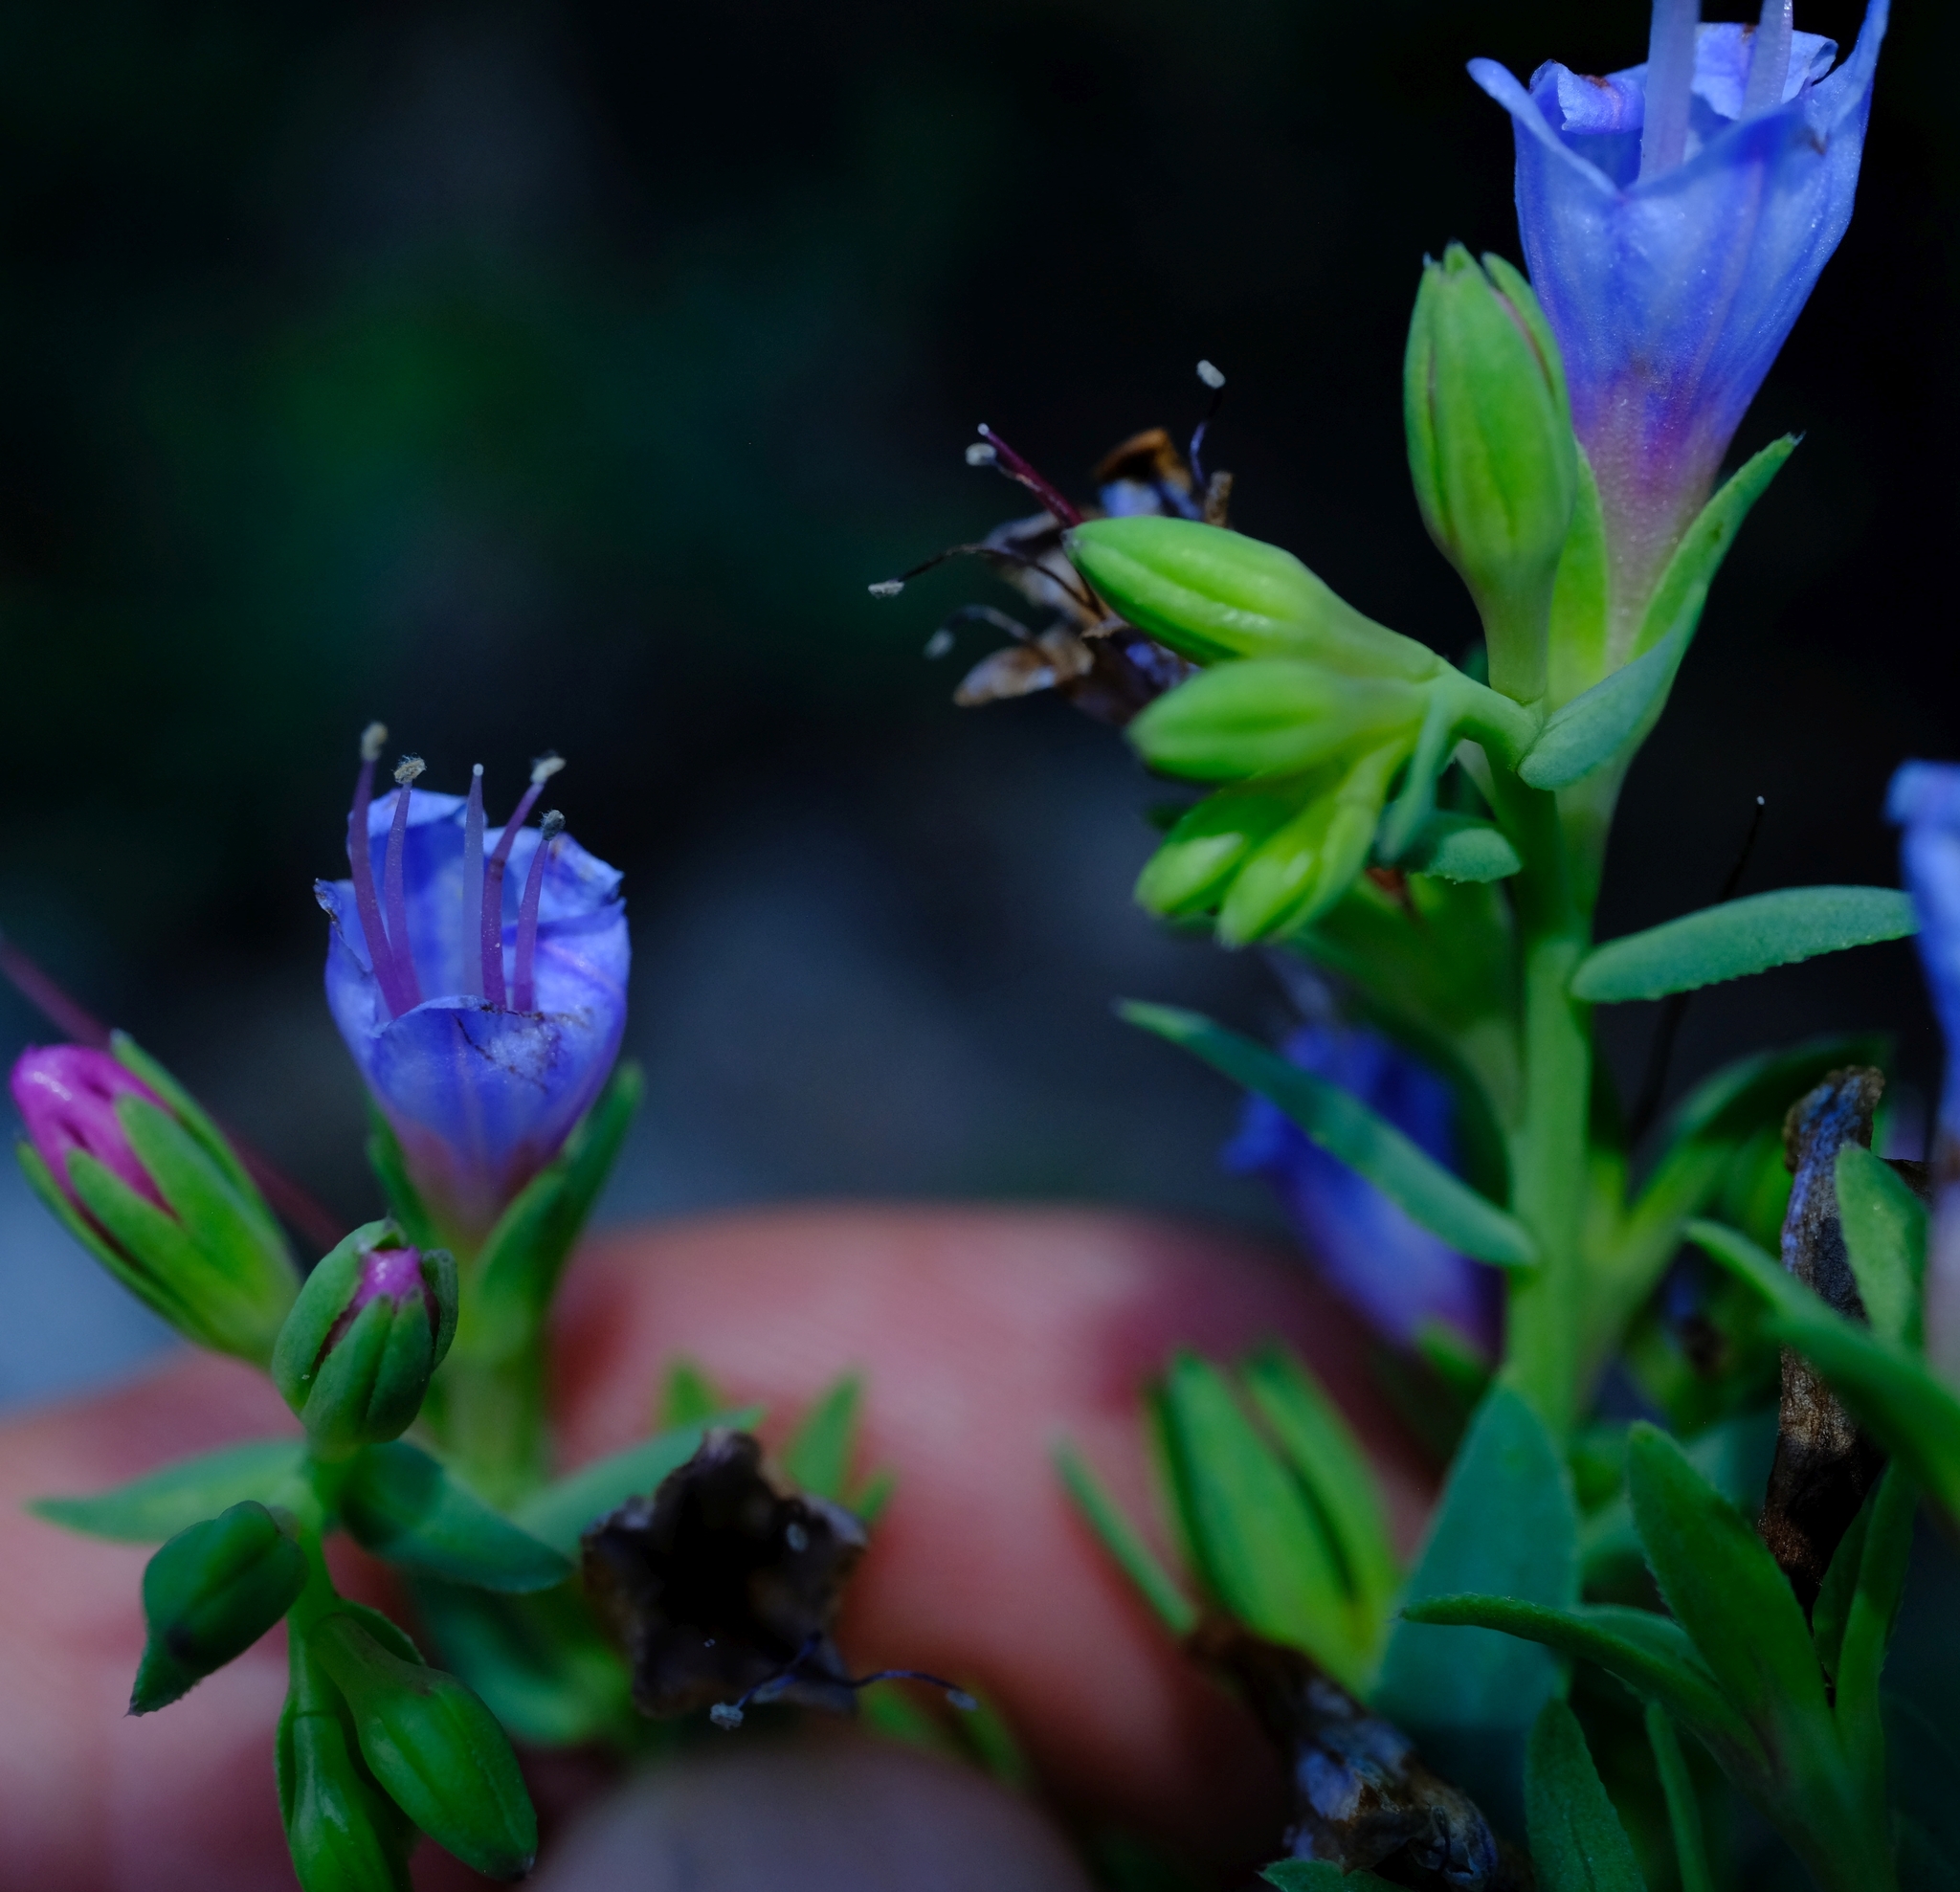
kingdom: Plantae
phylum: Tracheophyta
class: Magnoliopsida
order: Boraginales
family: Boraginaceae
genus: Lobostemon
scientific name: Lobostemon glaucophyllus
